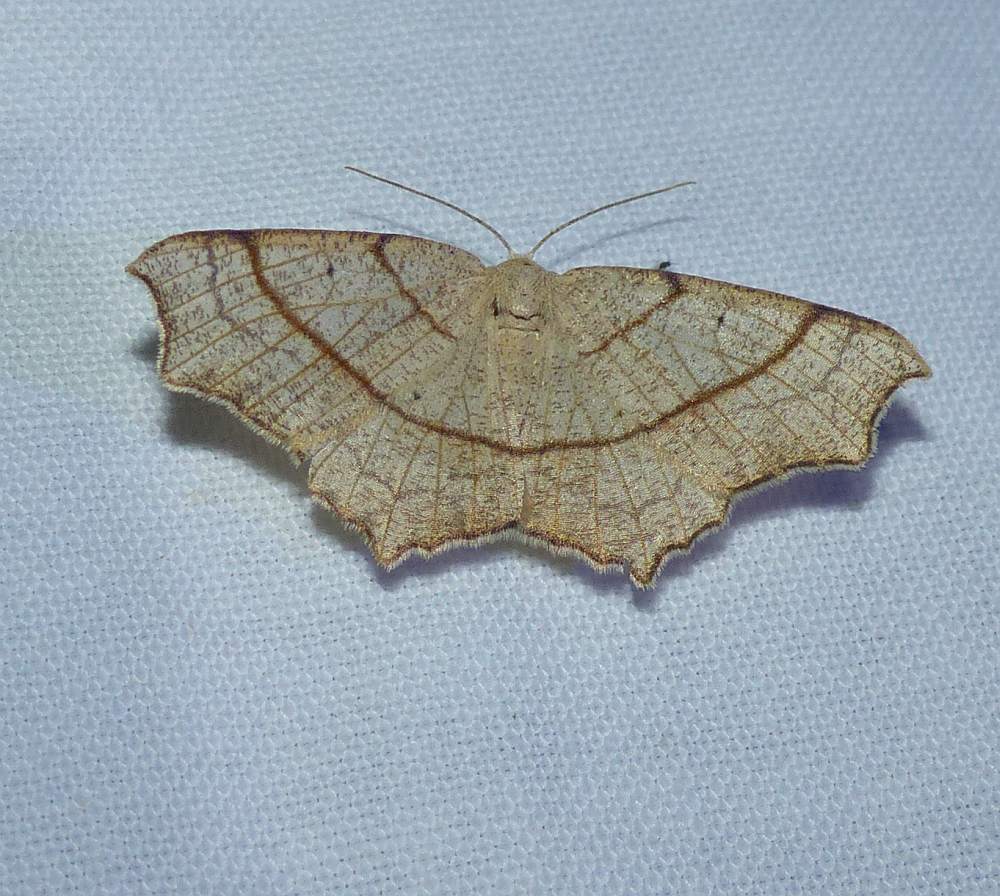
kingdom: Animalia
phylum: Arthropoda
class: Insecta
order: Lepidoptera
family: Geometridae
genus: Besma
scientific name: Besma quercivoraria
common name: Oak besma
